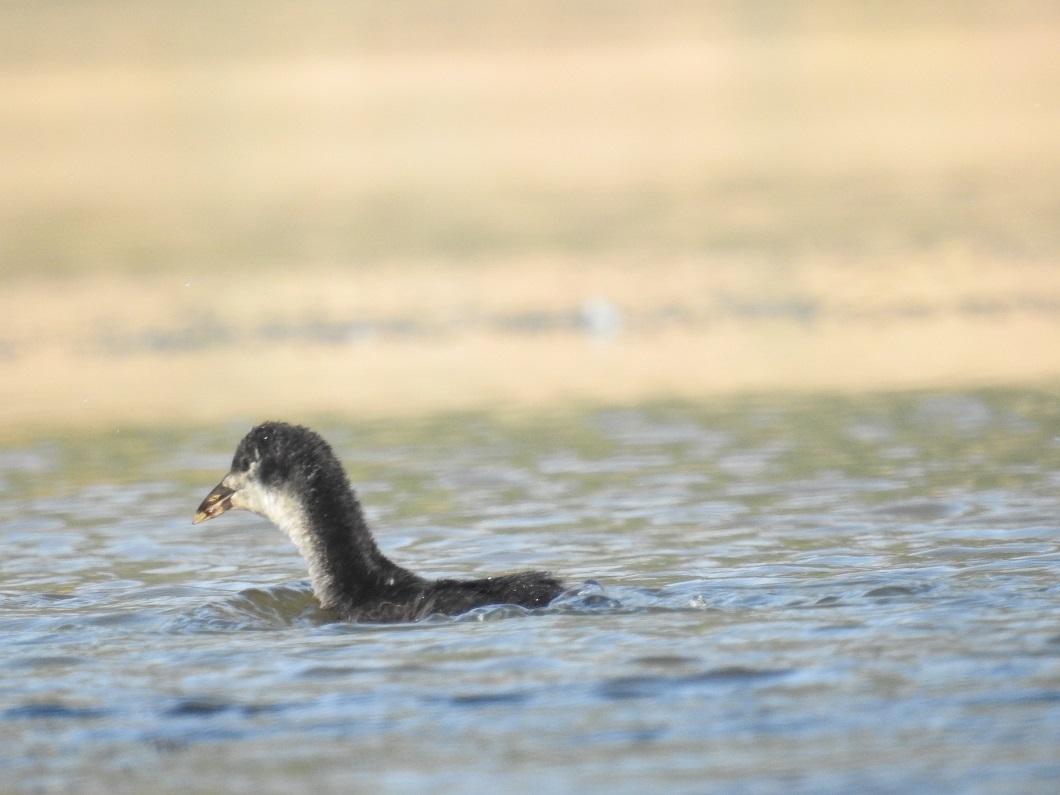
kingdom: Animalia
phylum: Chordata
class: Aves
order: Gruiformes
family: Rallidae
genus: Fulica
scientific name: Fulica atra
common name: Eurasian coot
